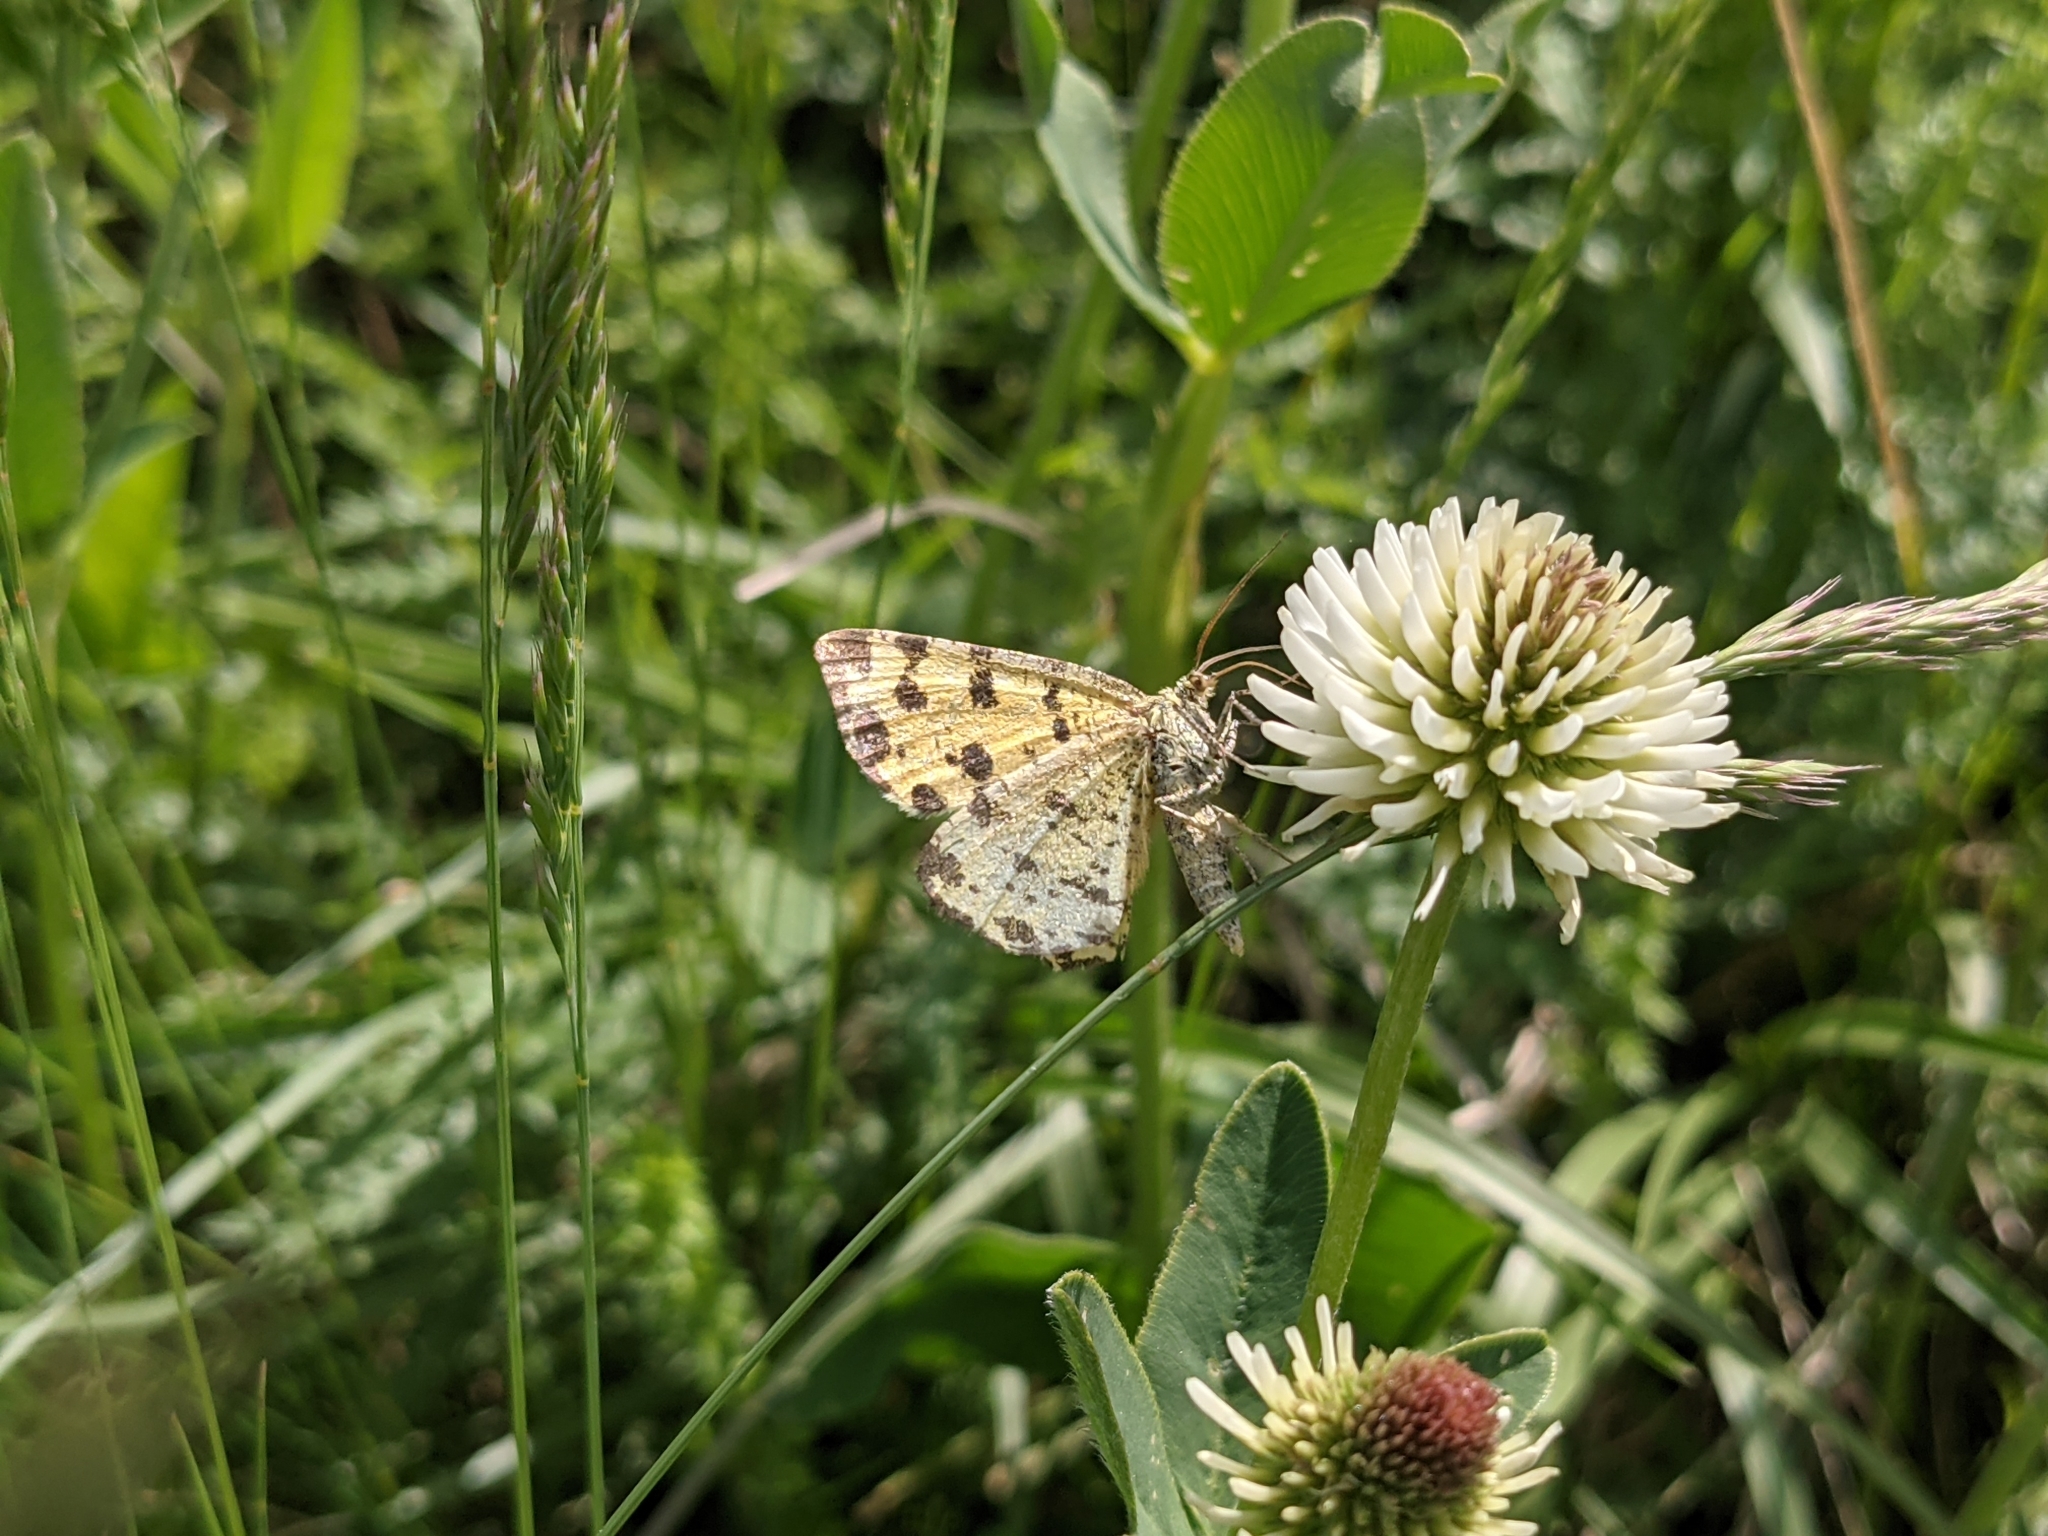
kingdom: Animalia
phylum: Arthropoda
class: Insecta
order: Lepidoptera
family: Geometridae
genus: Pseudopanthera
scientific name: Pseudopanthera macularia
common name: Speckled yellow
